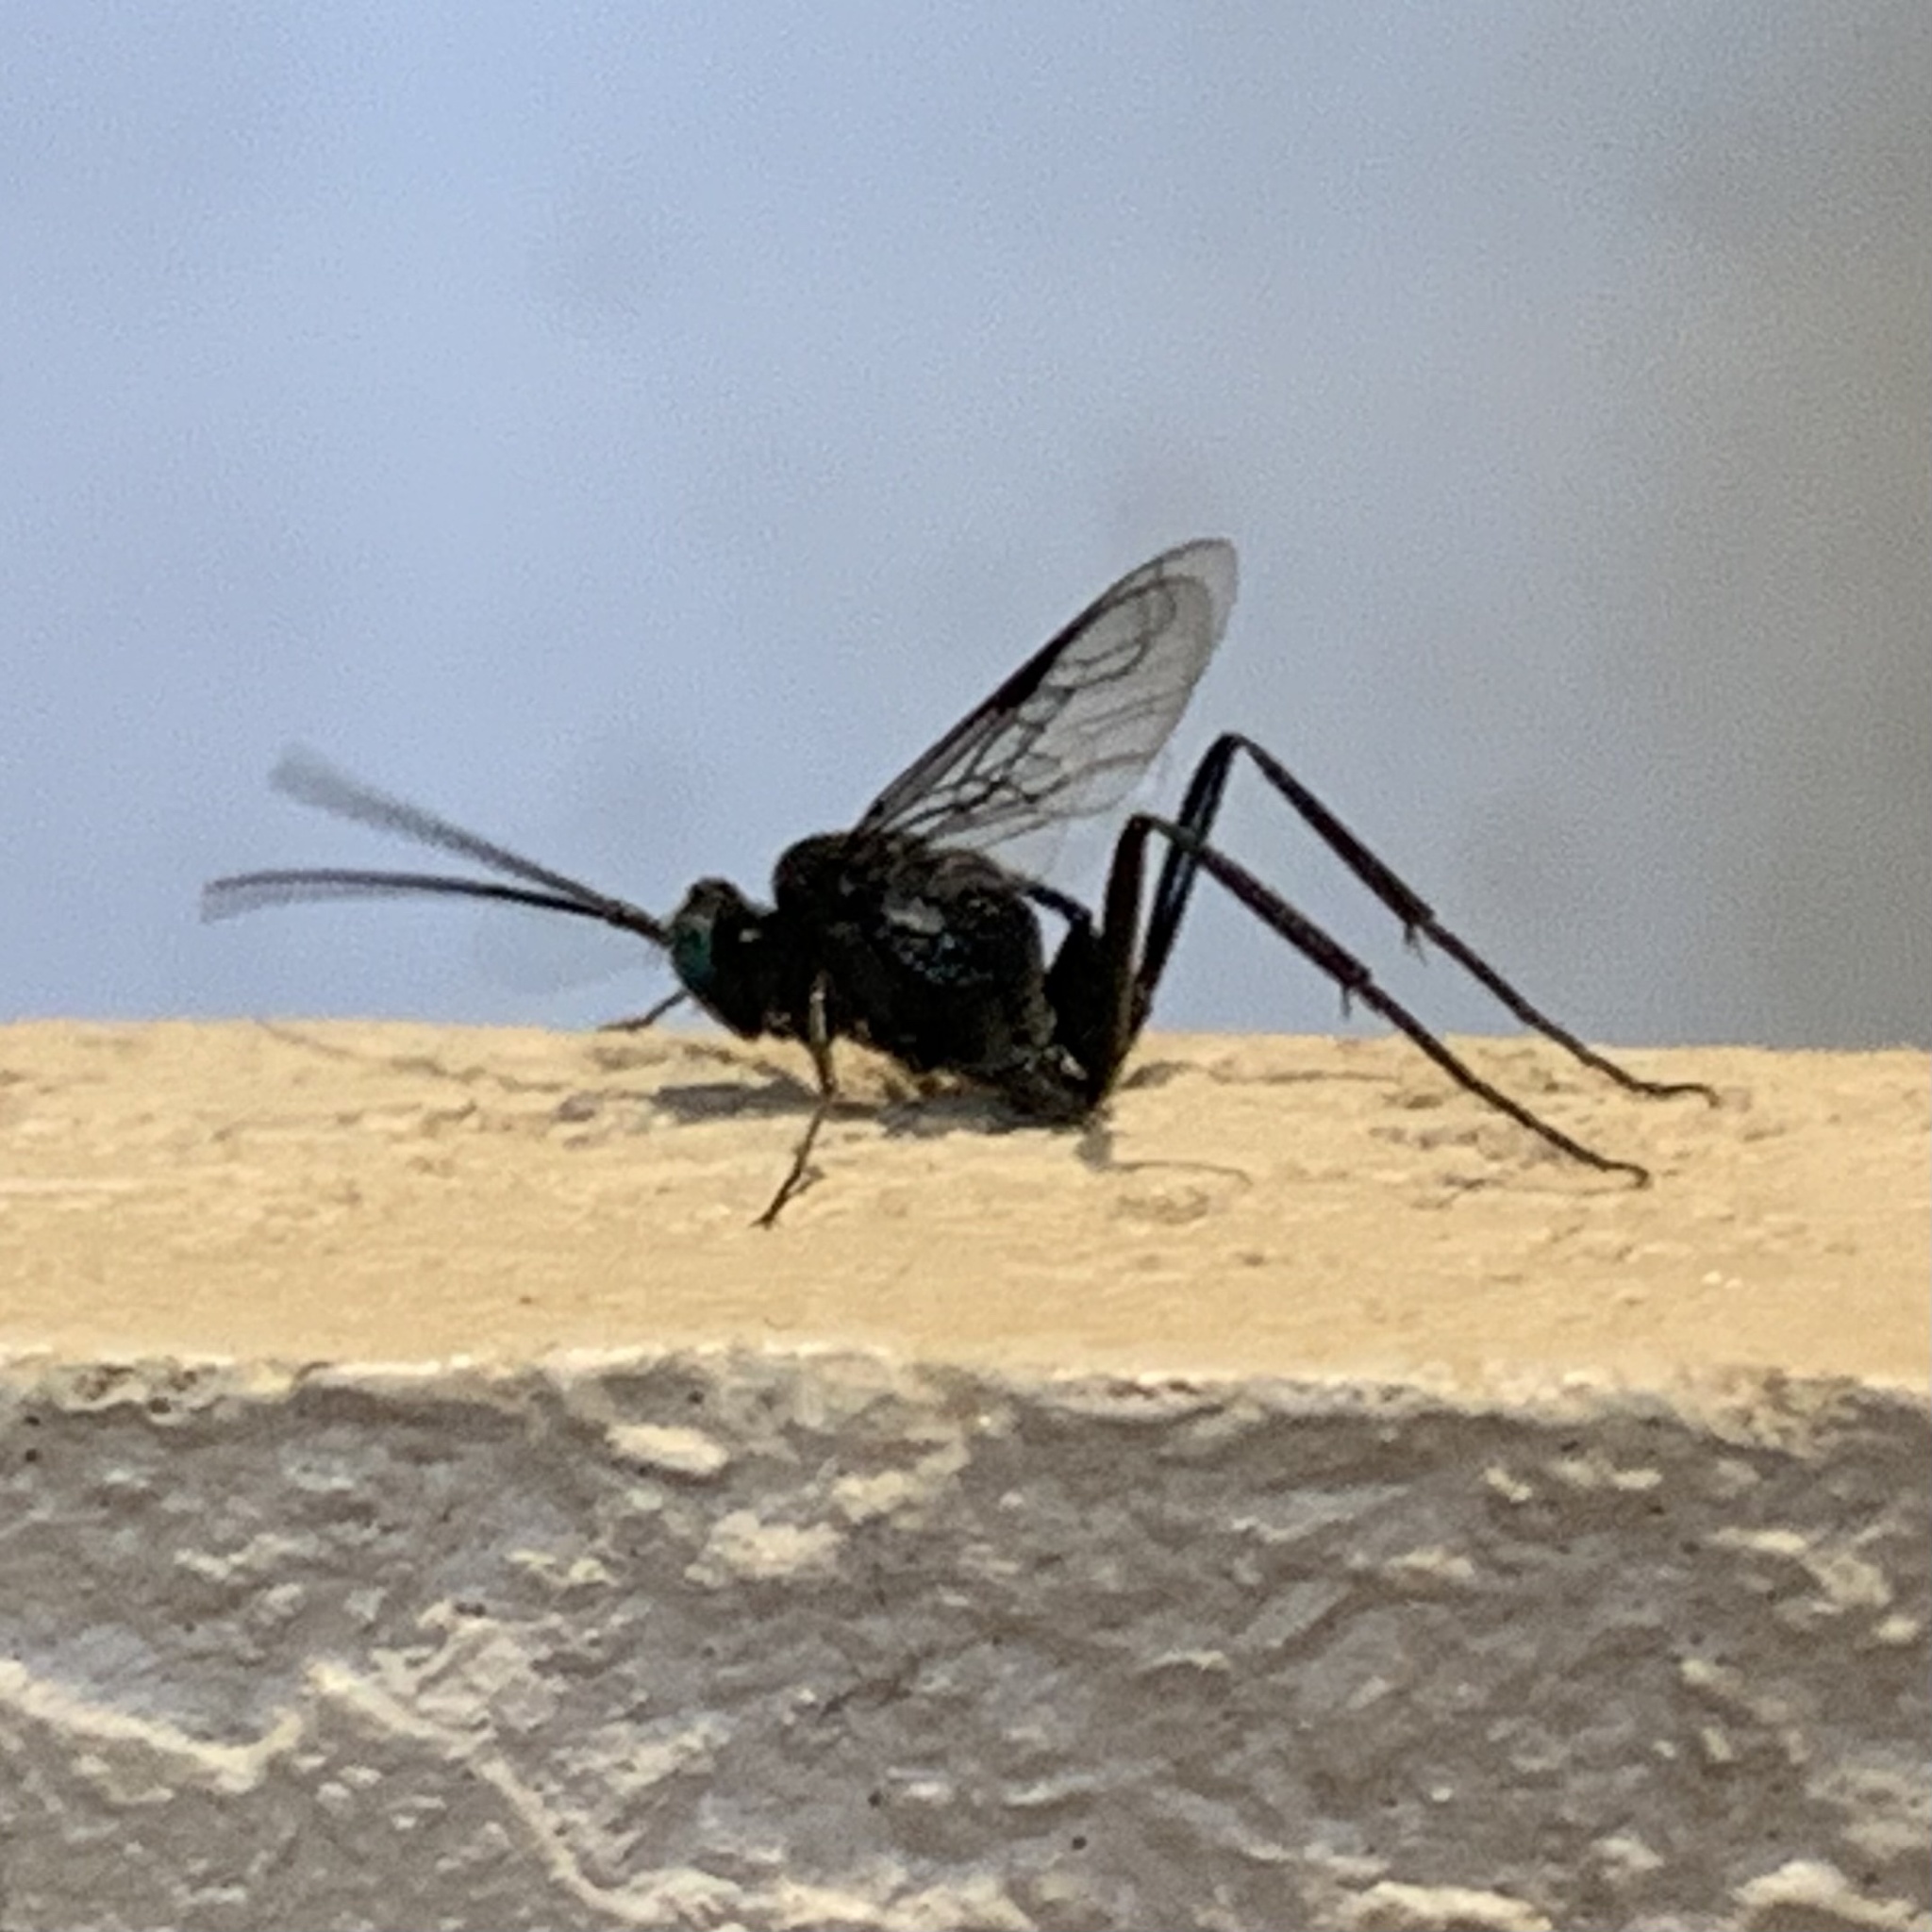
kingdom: Animalia
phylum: Arthropoda
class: Insecta
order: Hymenoptera
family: Evaniidae
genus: Evania
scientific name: Evania appendigaster
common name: Ensign wasp
